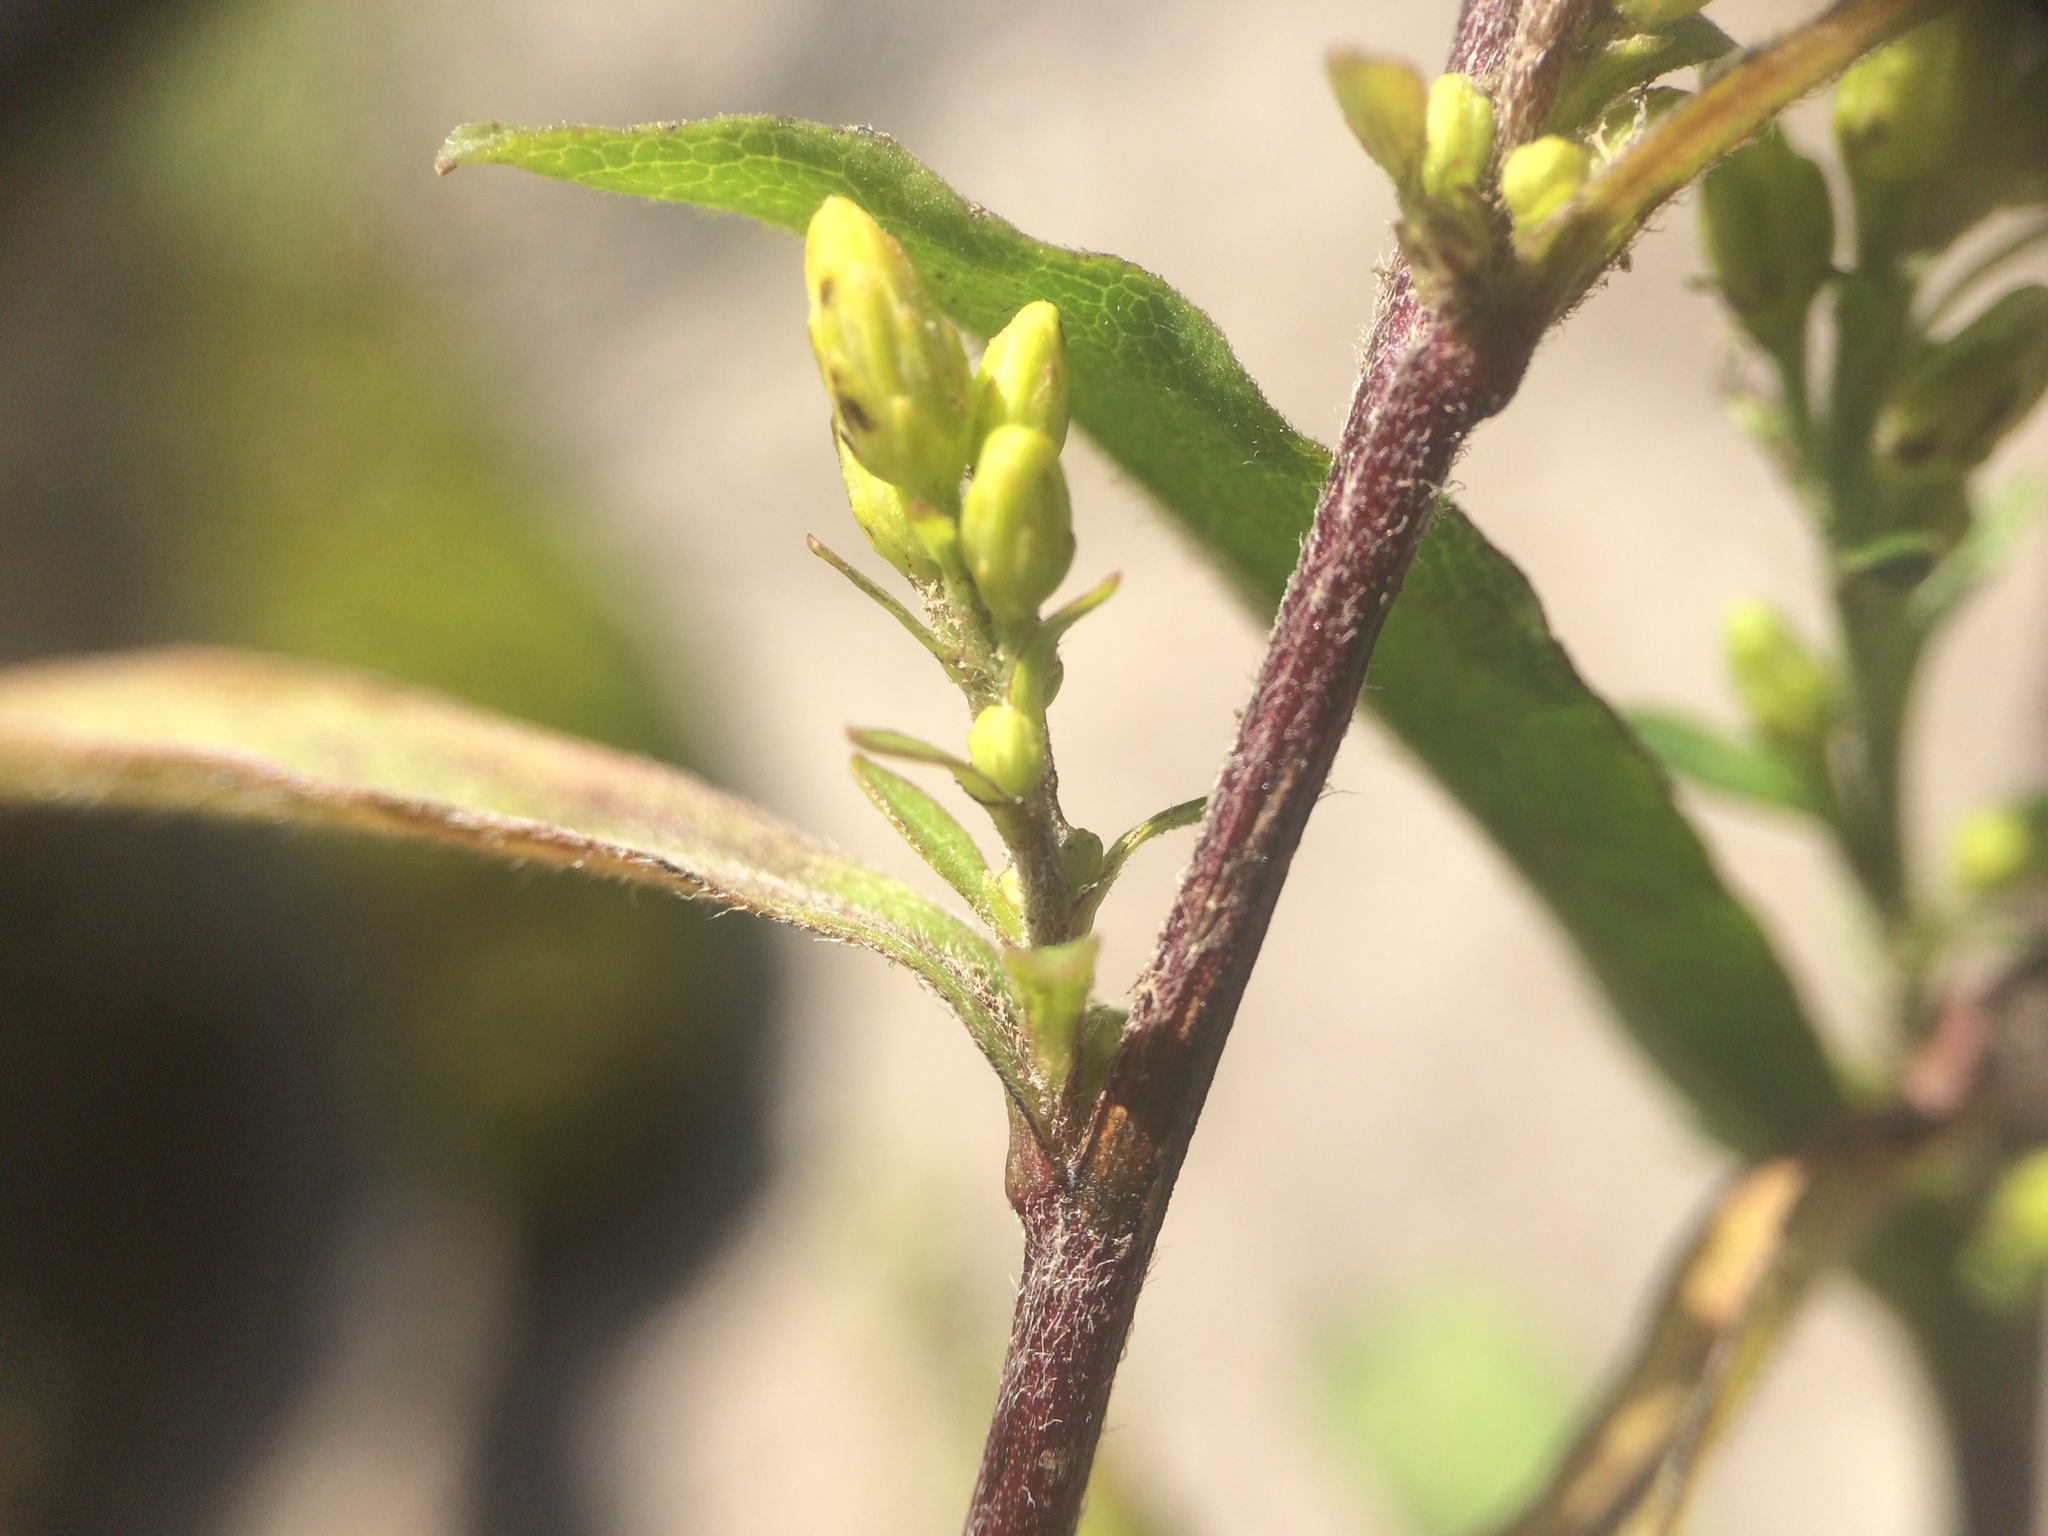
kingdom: Plantae
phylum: Tracheophyta
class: Magnoliopsida
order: Asterales
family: Asteraceae
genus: Solidago
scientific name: Solidago hispida
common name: Hairy goldenrod
